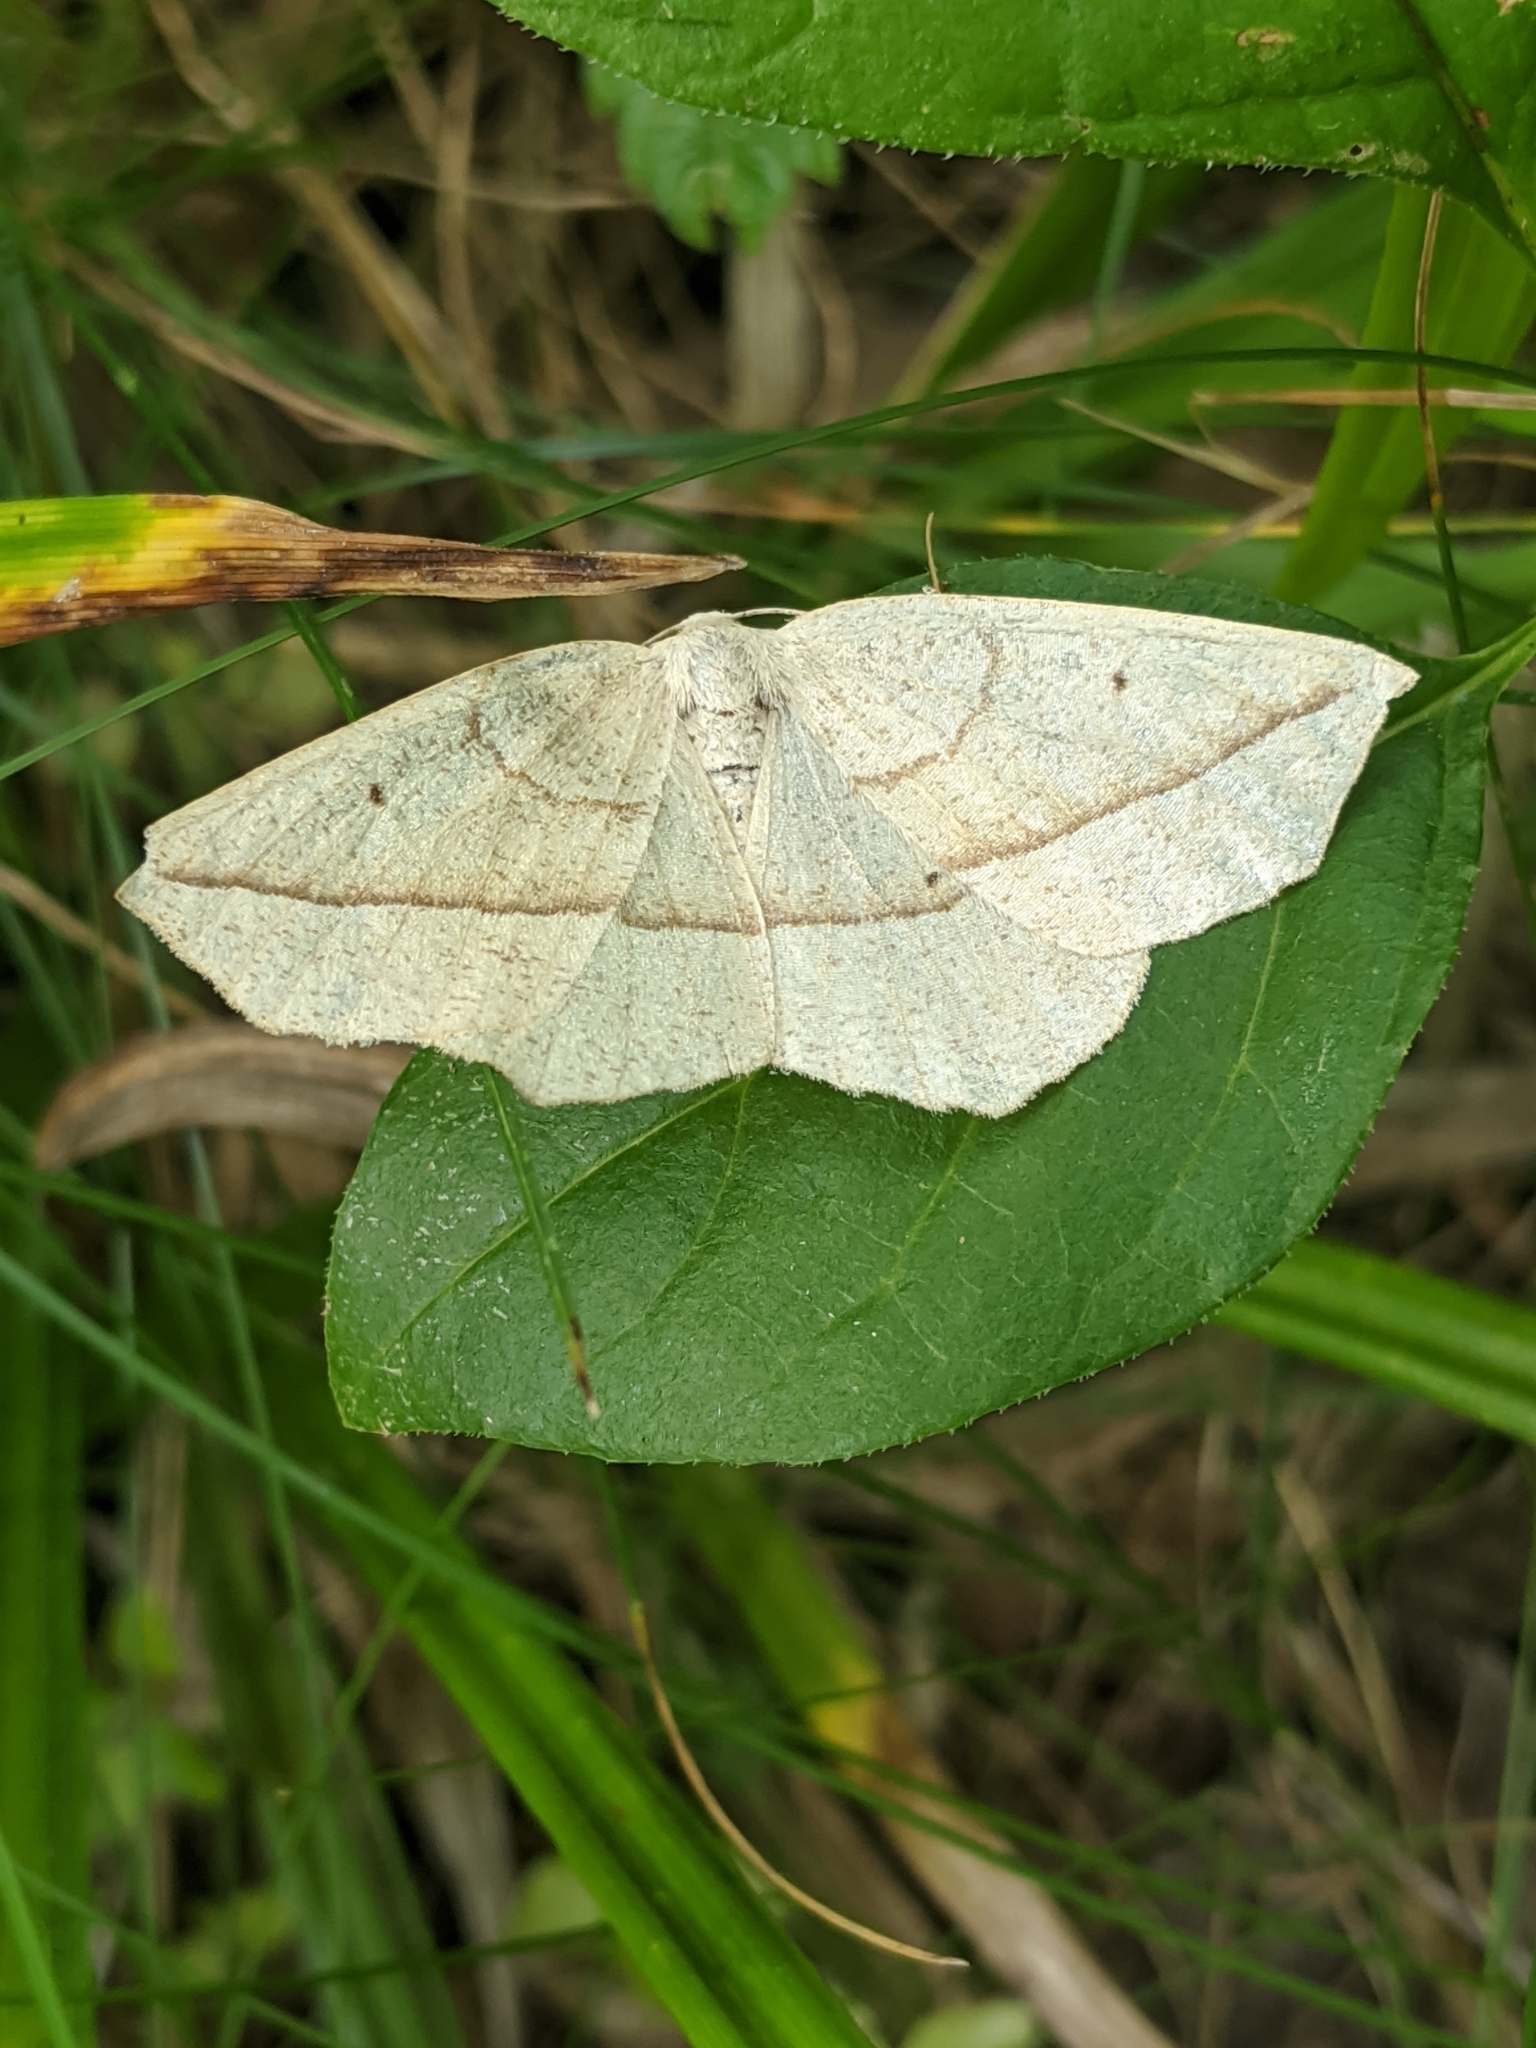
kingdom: Animalia
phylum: Arthropoda
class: Insecta
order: Lepidoptera
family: Geometridae
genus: Eusarca
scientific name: Eusarca confusaria
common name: Confused eusarca
